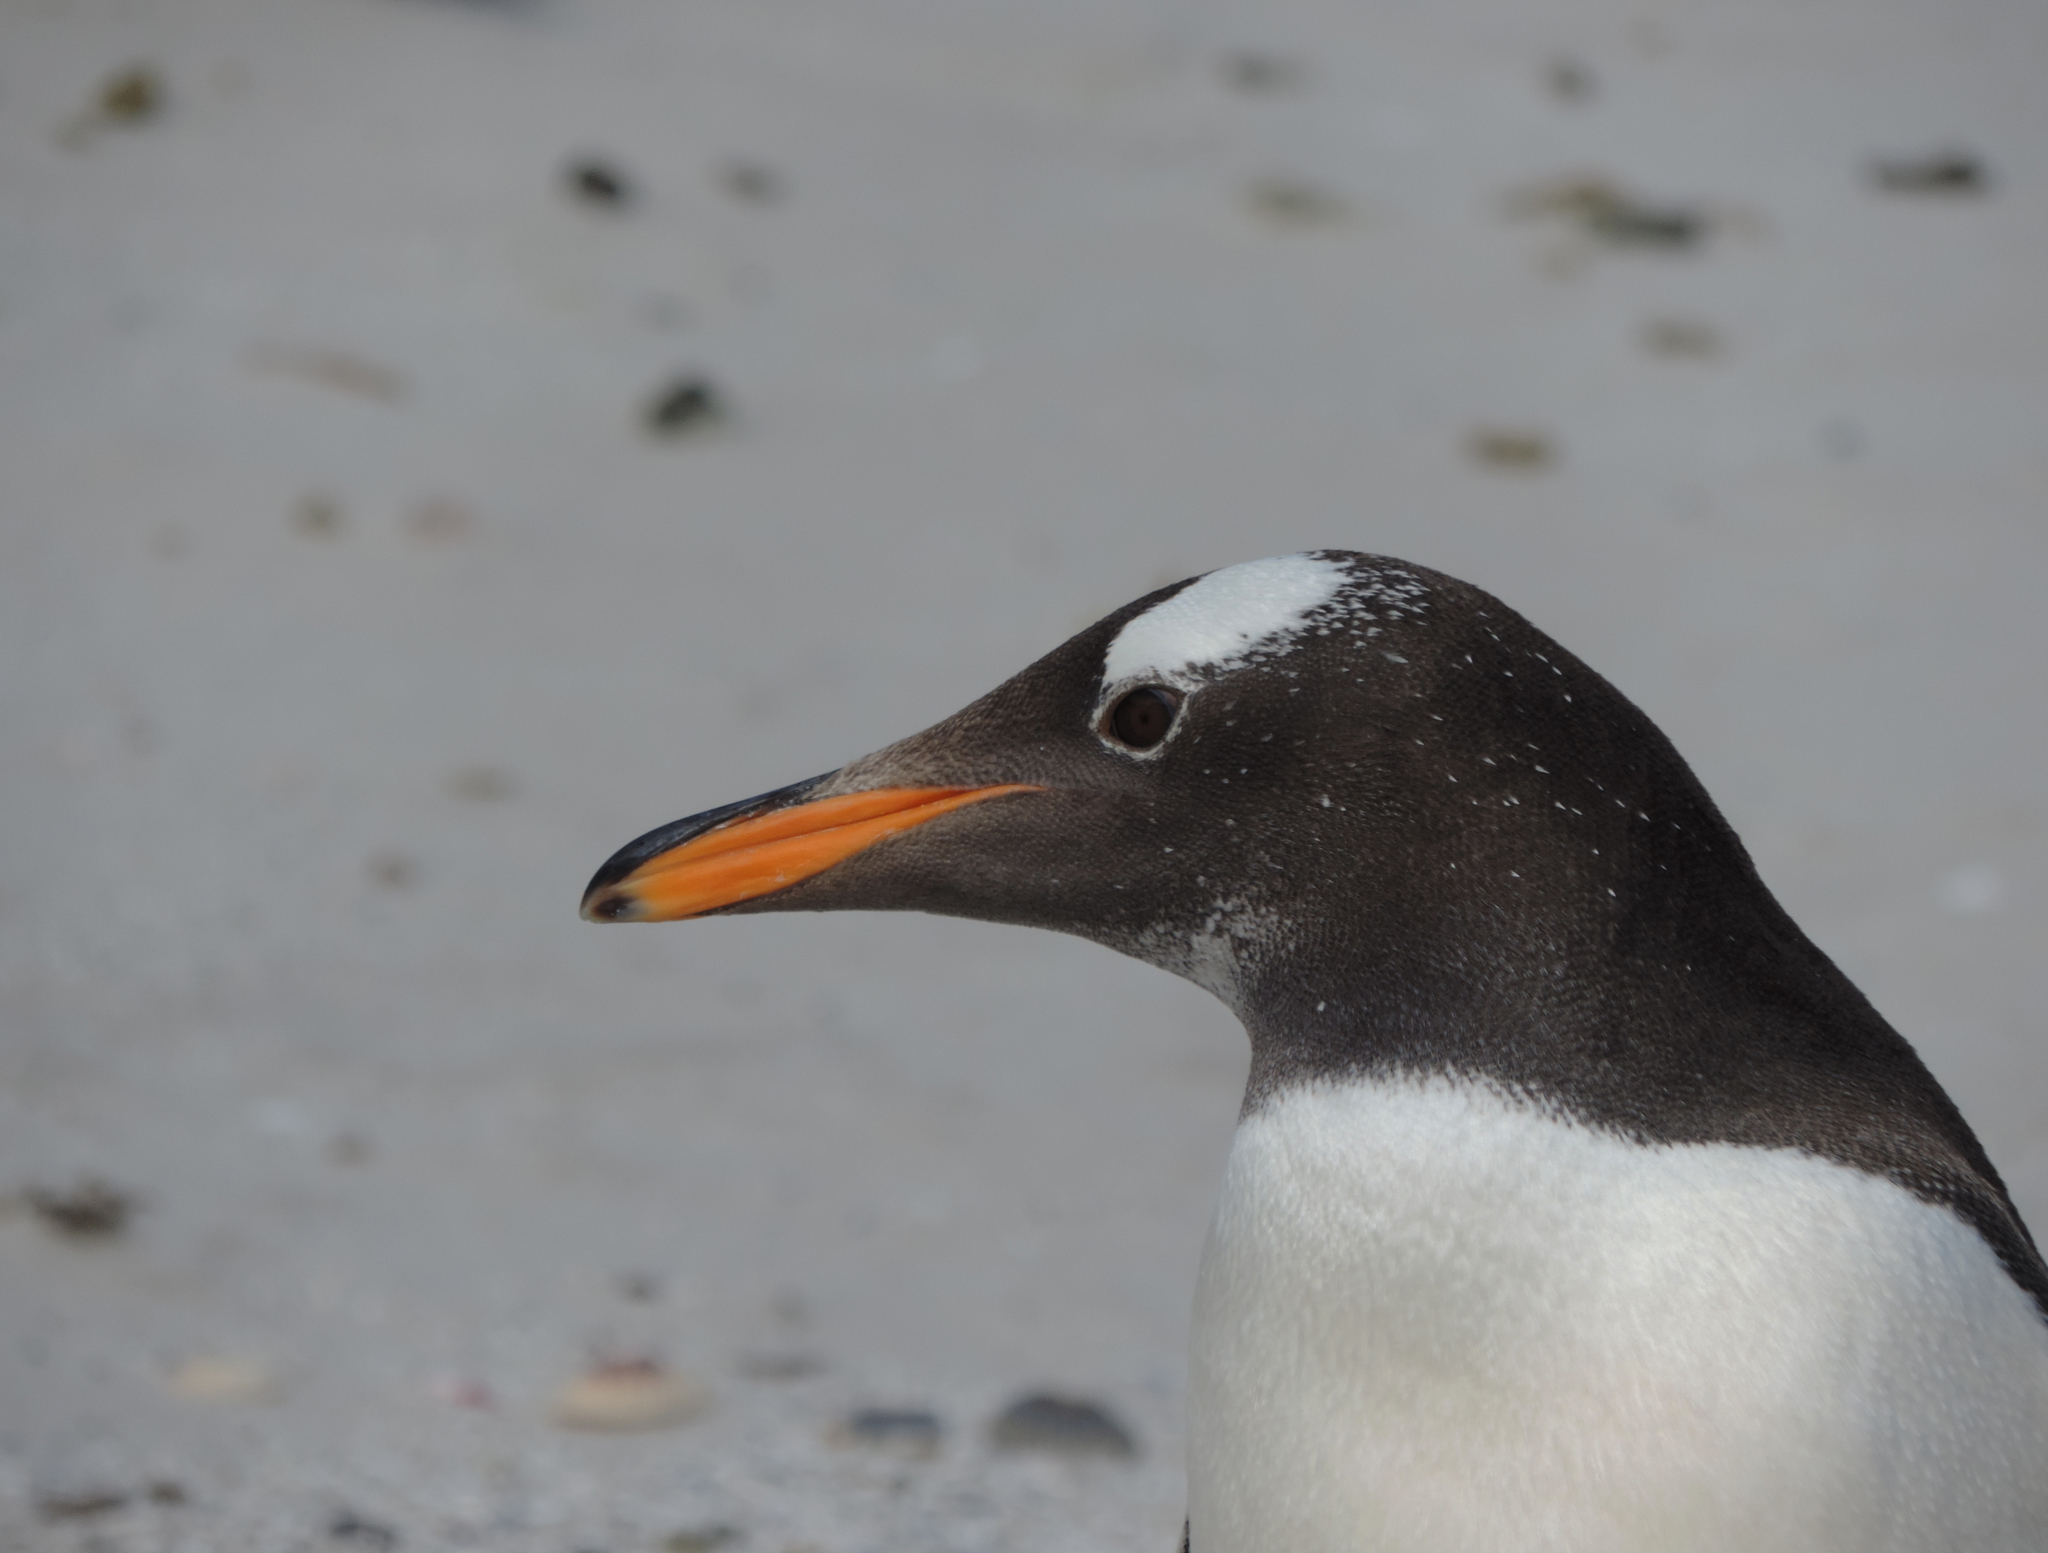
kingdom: Animalia
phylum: Chordata
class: Aves
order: Sphenisciformes
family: Spheniscidae
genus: Pygoscelis
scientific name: Pygoscelis papua
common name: Gentoo penguin
